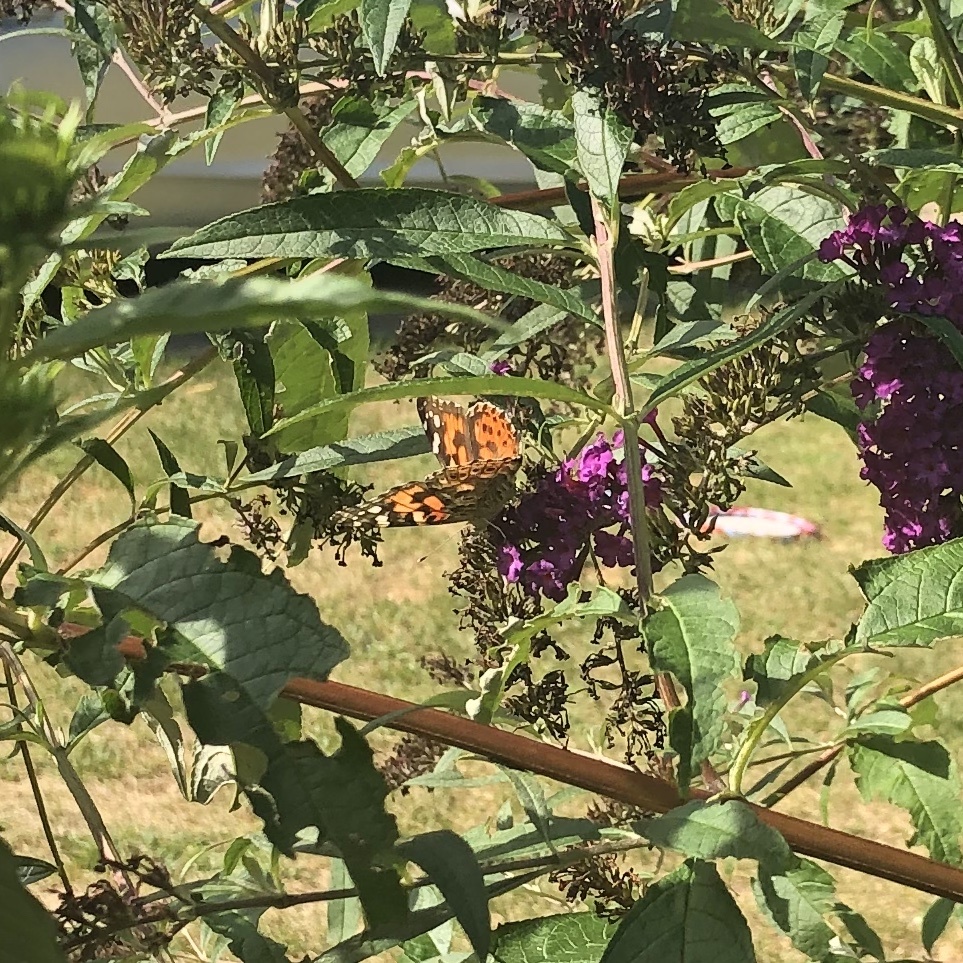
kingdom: Animalia
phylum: Arthropoda
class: Insecta
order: Lepidoptera
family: Nymphalidae
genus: Vanessa
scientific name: Vanessa cardui
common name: Painted lady
